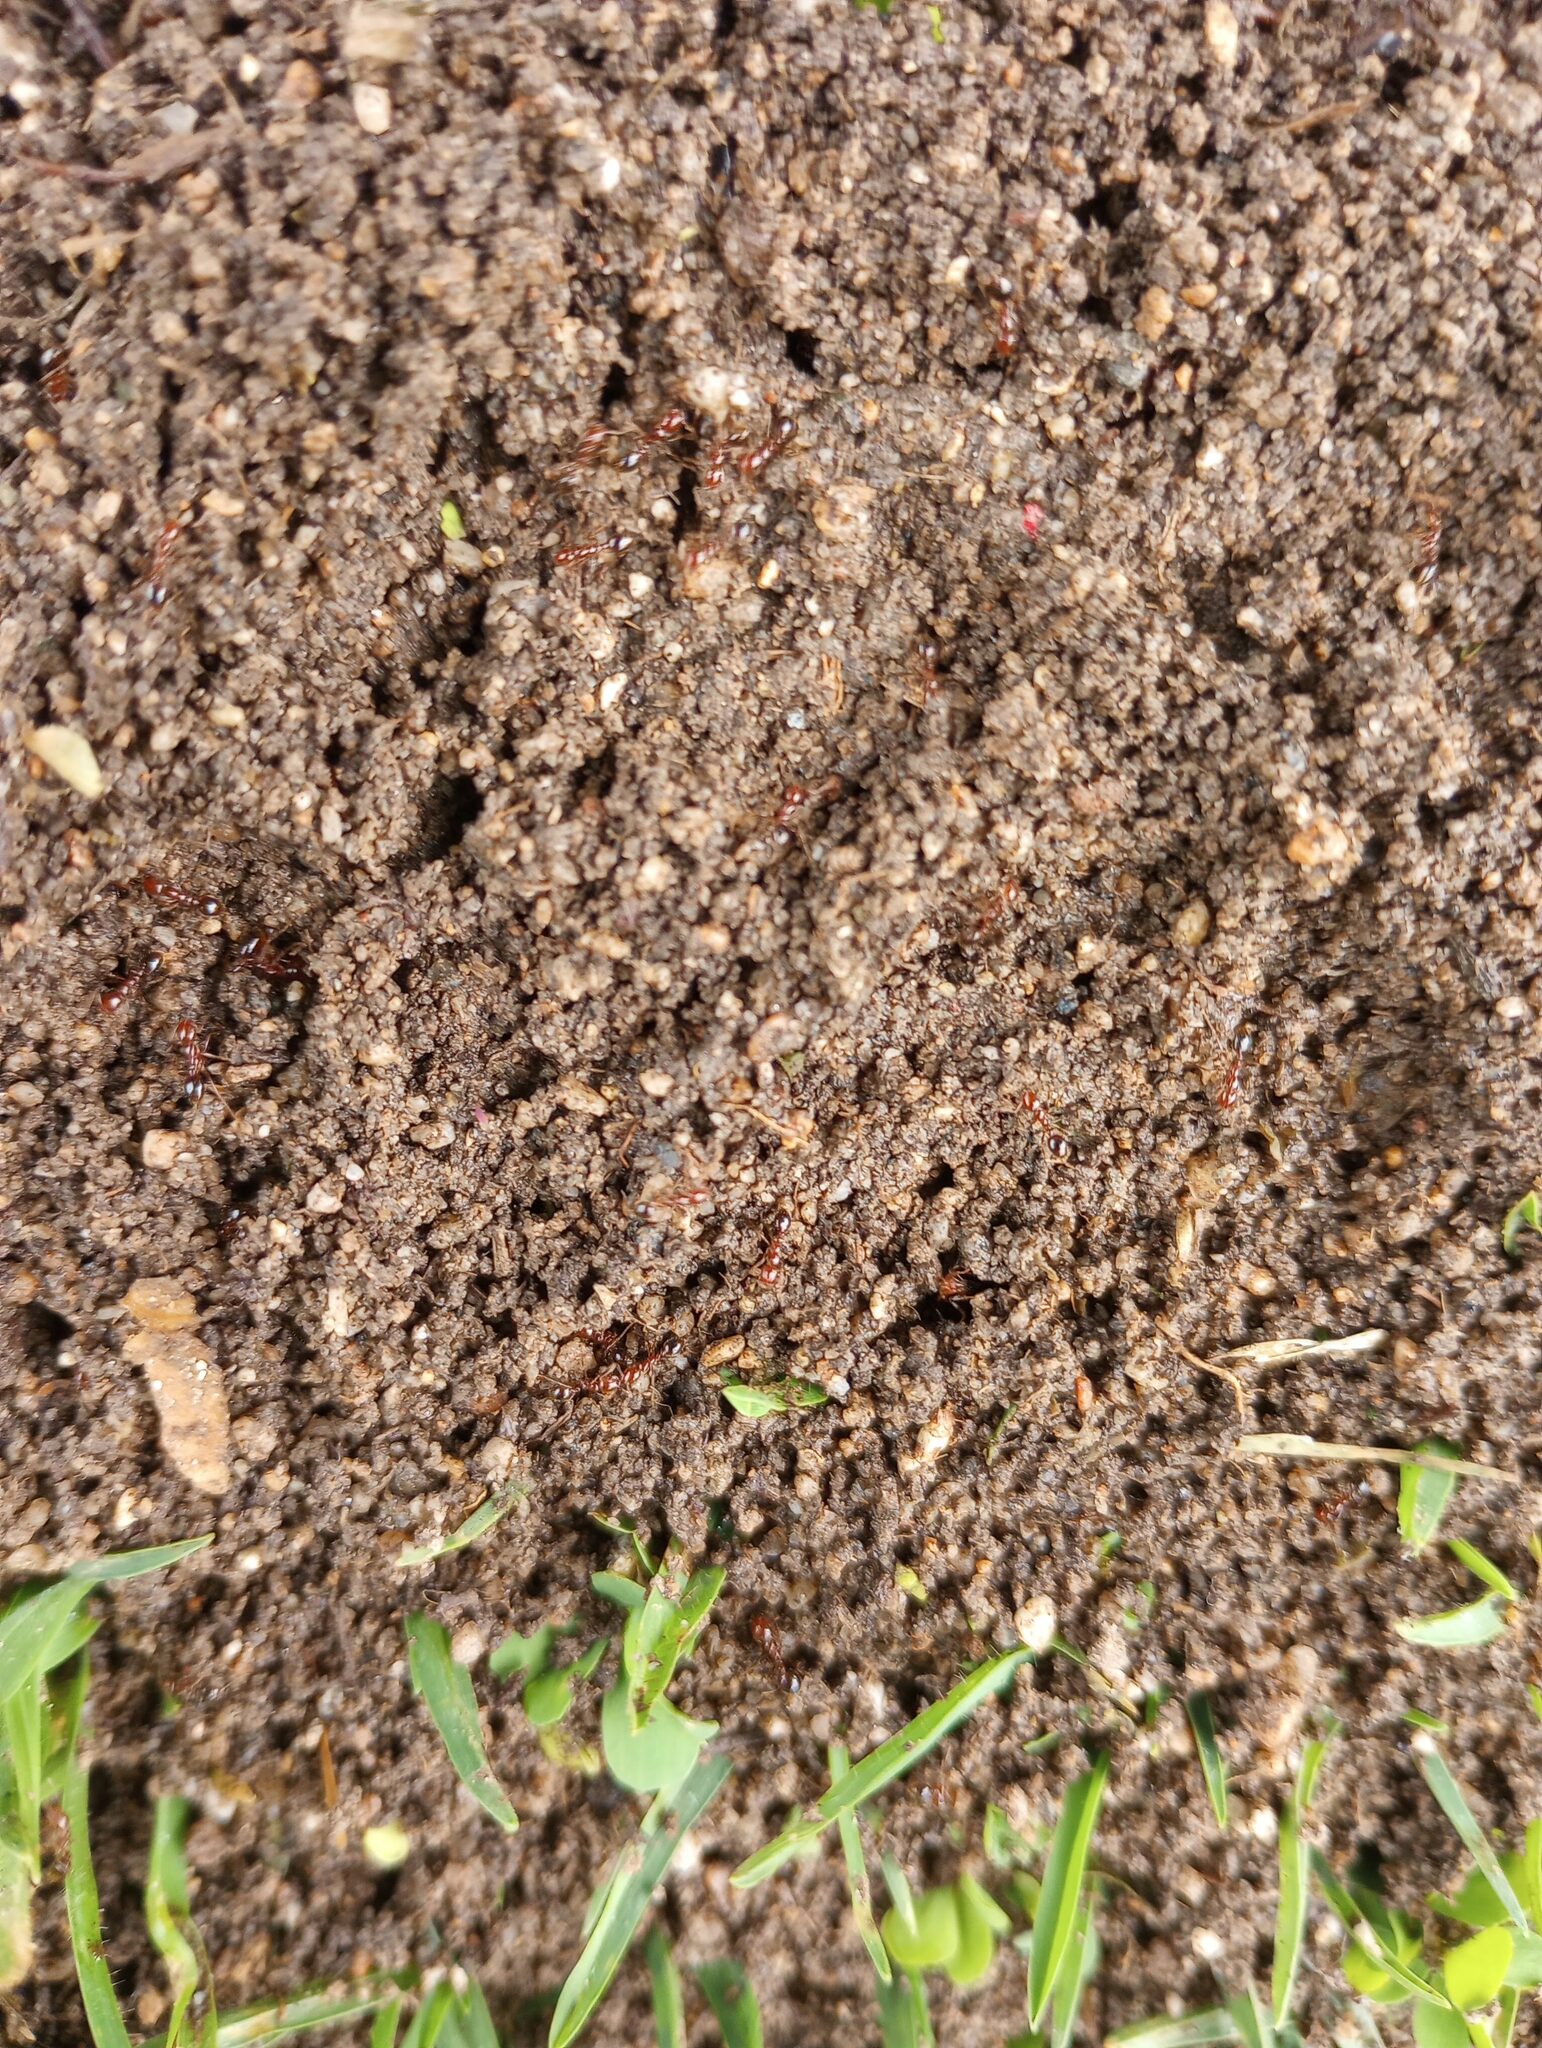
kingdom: Animalia
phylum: Arthropoda
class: Insecta
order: Hymenoptera
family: Formicidae
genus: Solenopsis
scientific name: Solenopsis invicta
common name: Red imported fire ant
